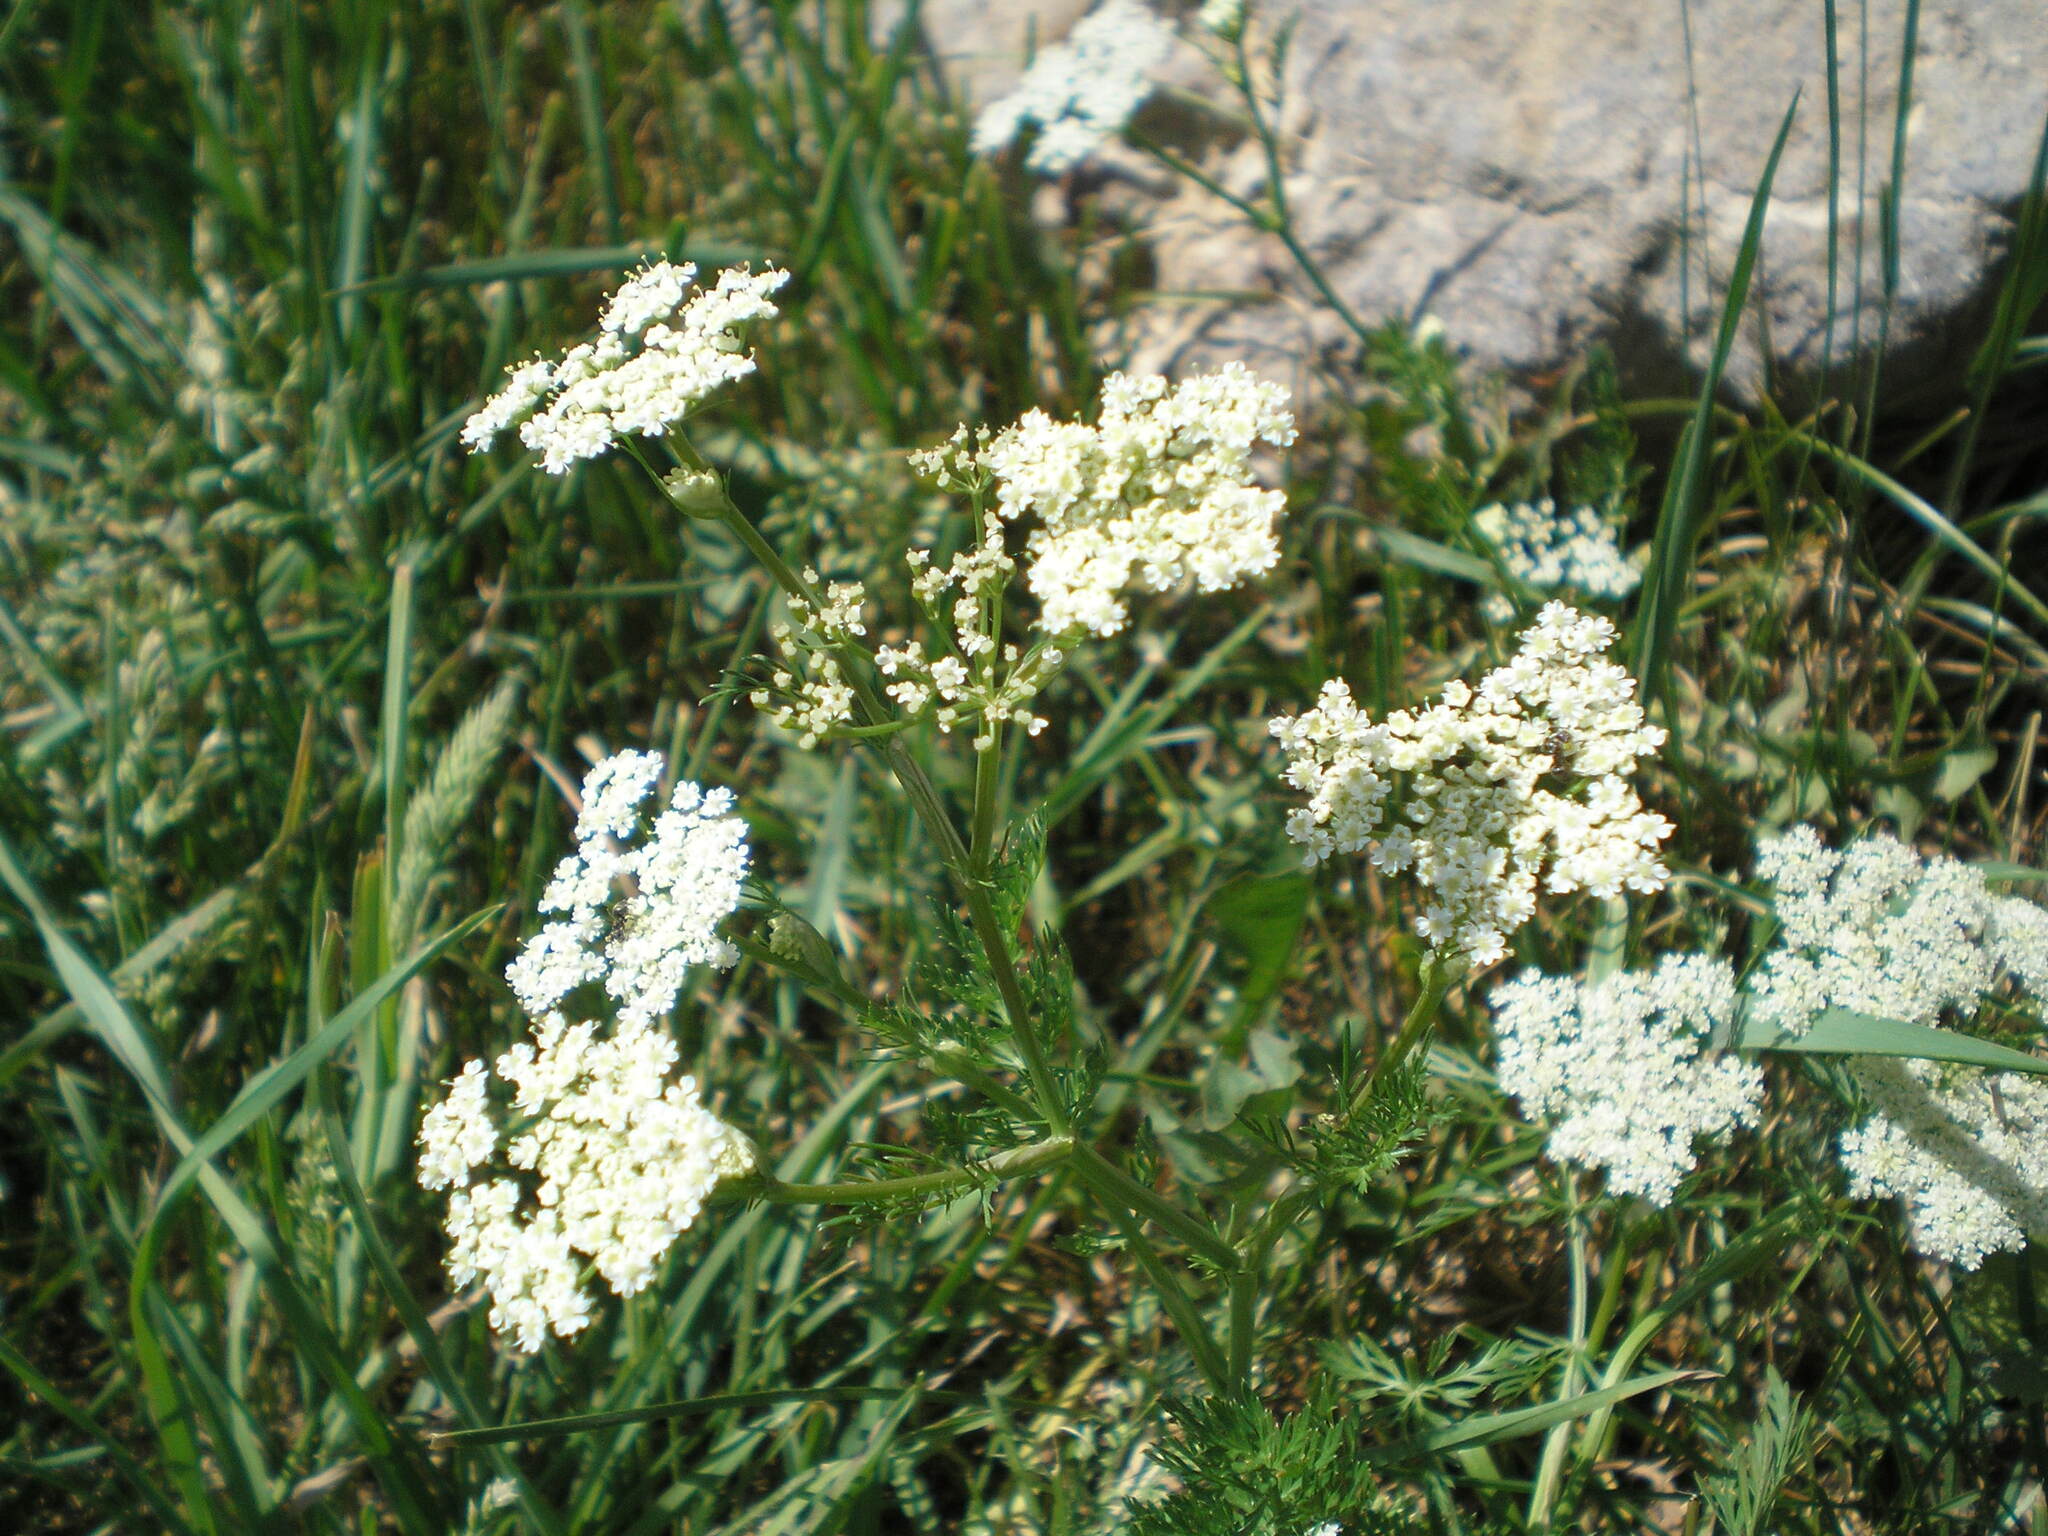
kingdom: Plantae
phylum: Tracheophyta
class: Magnoliopsida
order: Apiales
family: Apiaceae
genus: Carum
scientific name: Carum carvi
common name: Caraway
